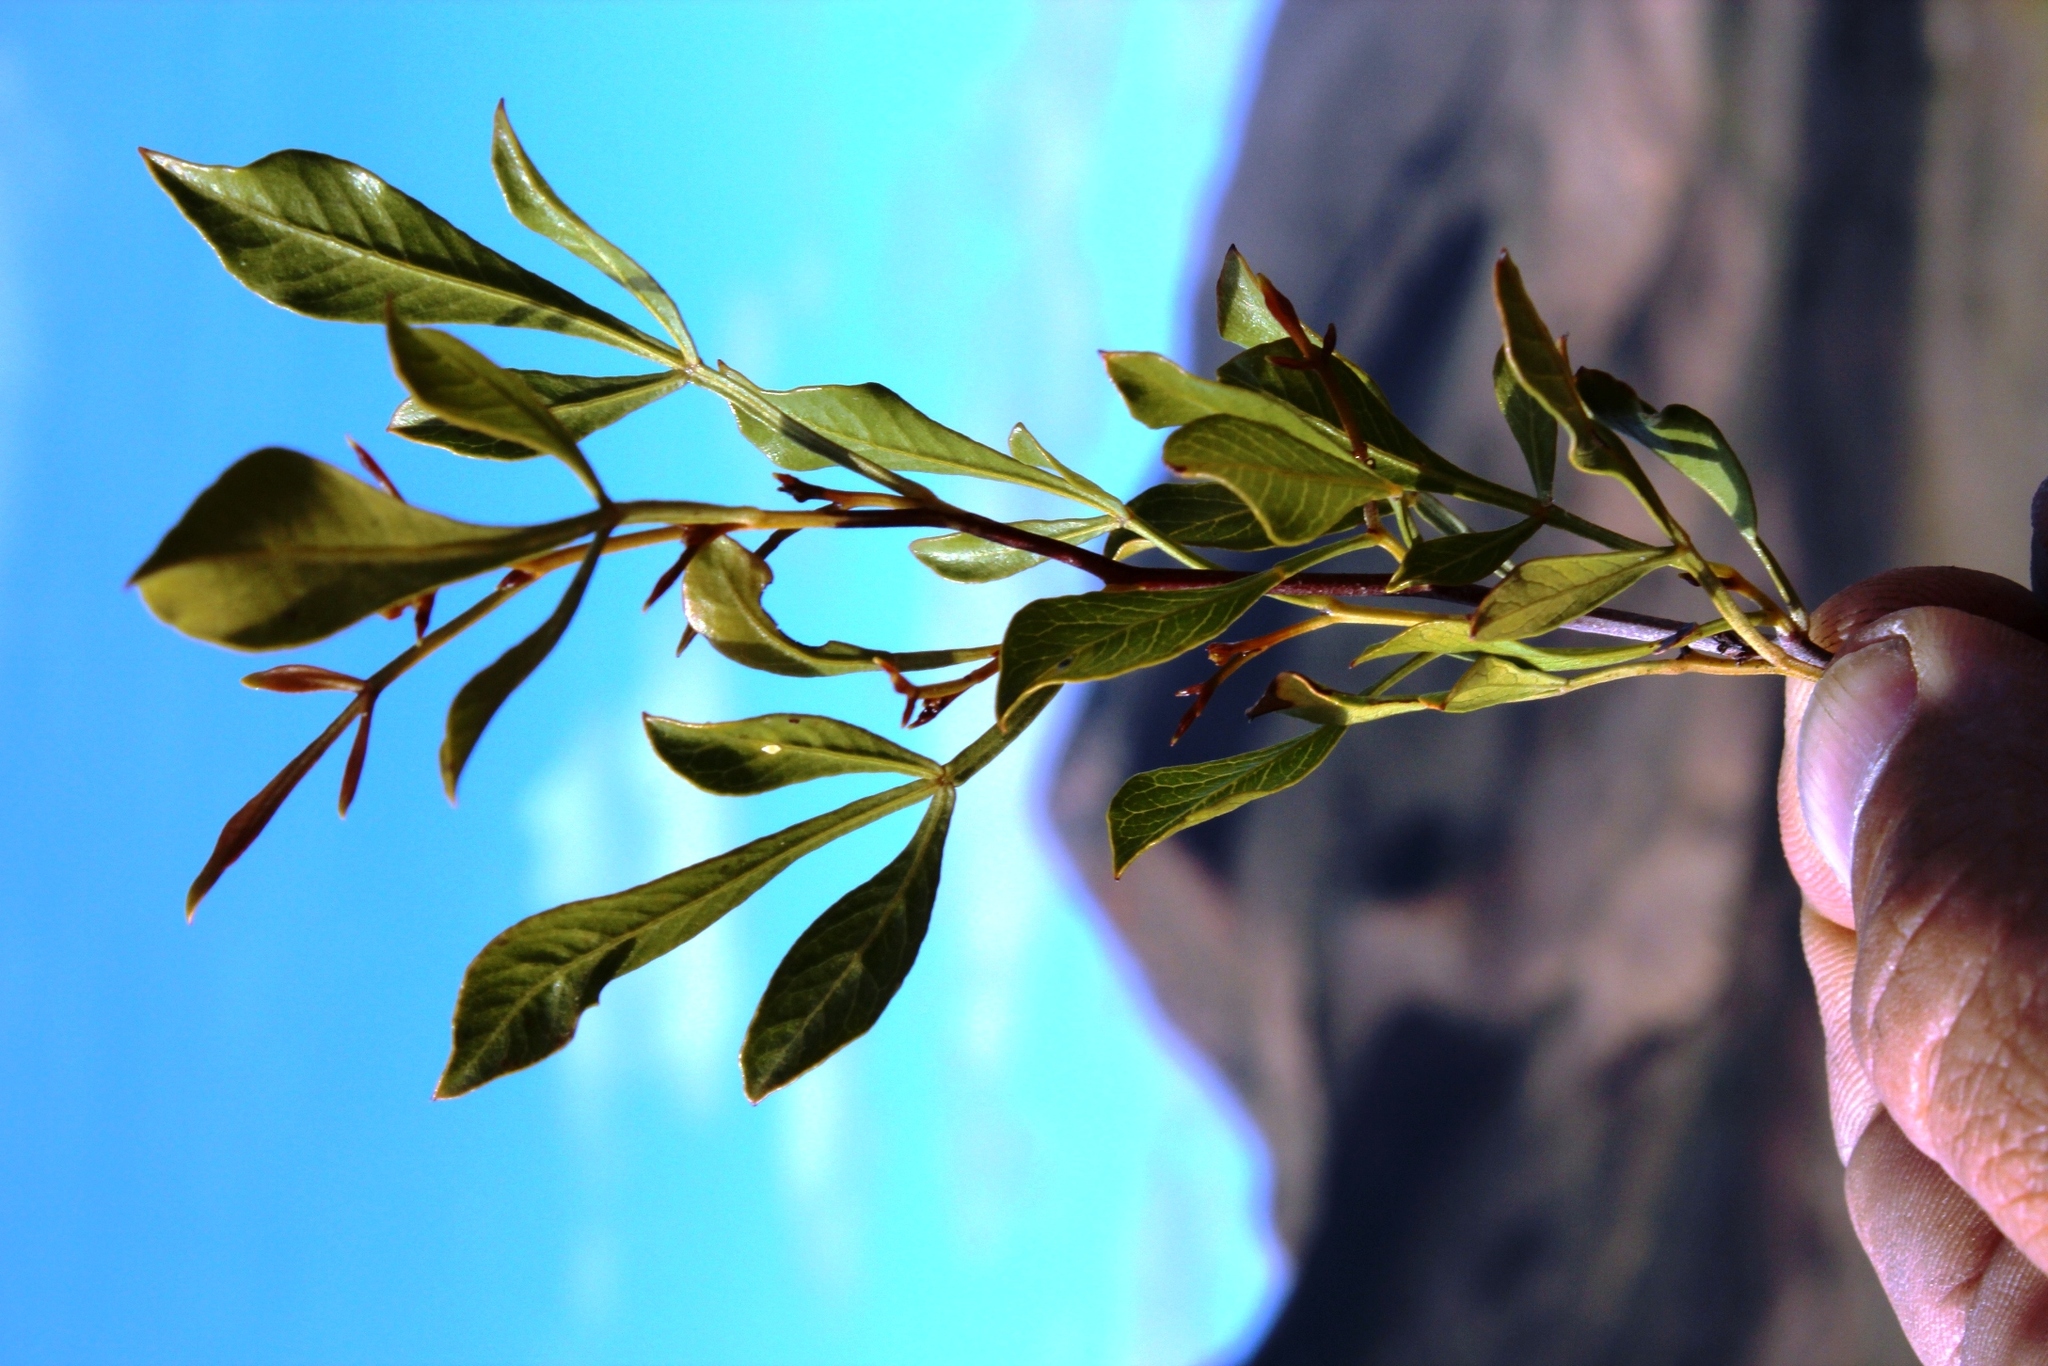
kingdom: Plantae
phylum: Tracheophyta
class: Magnoliopsida
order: Sapindales
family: Anacardiaceae
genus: Searsia
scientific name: Searsia pallens
